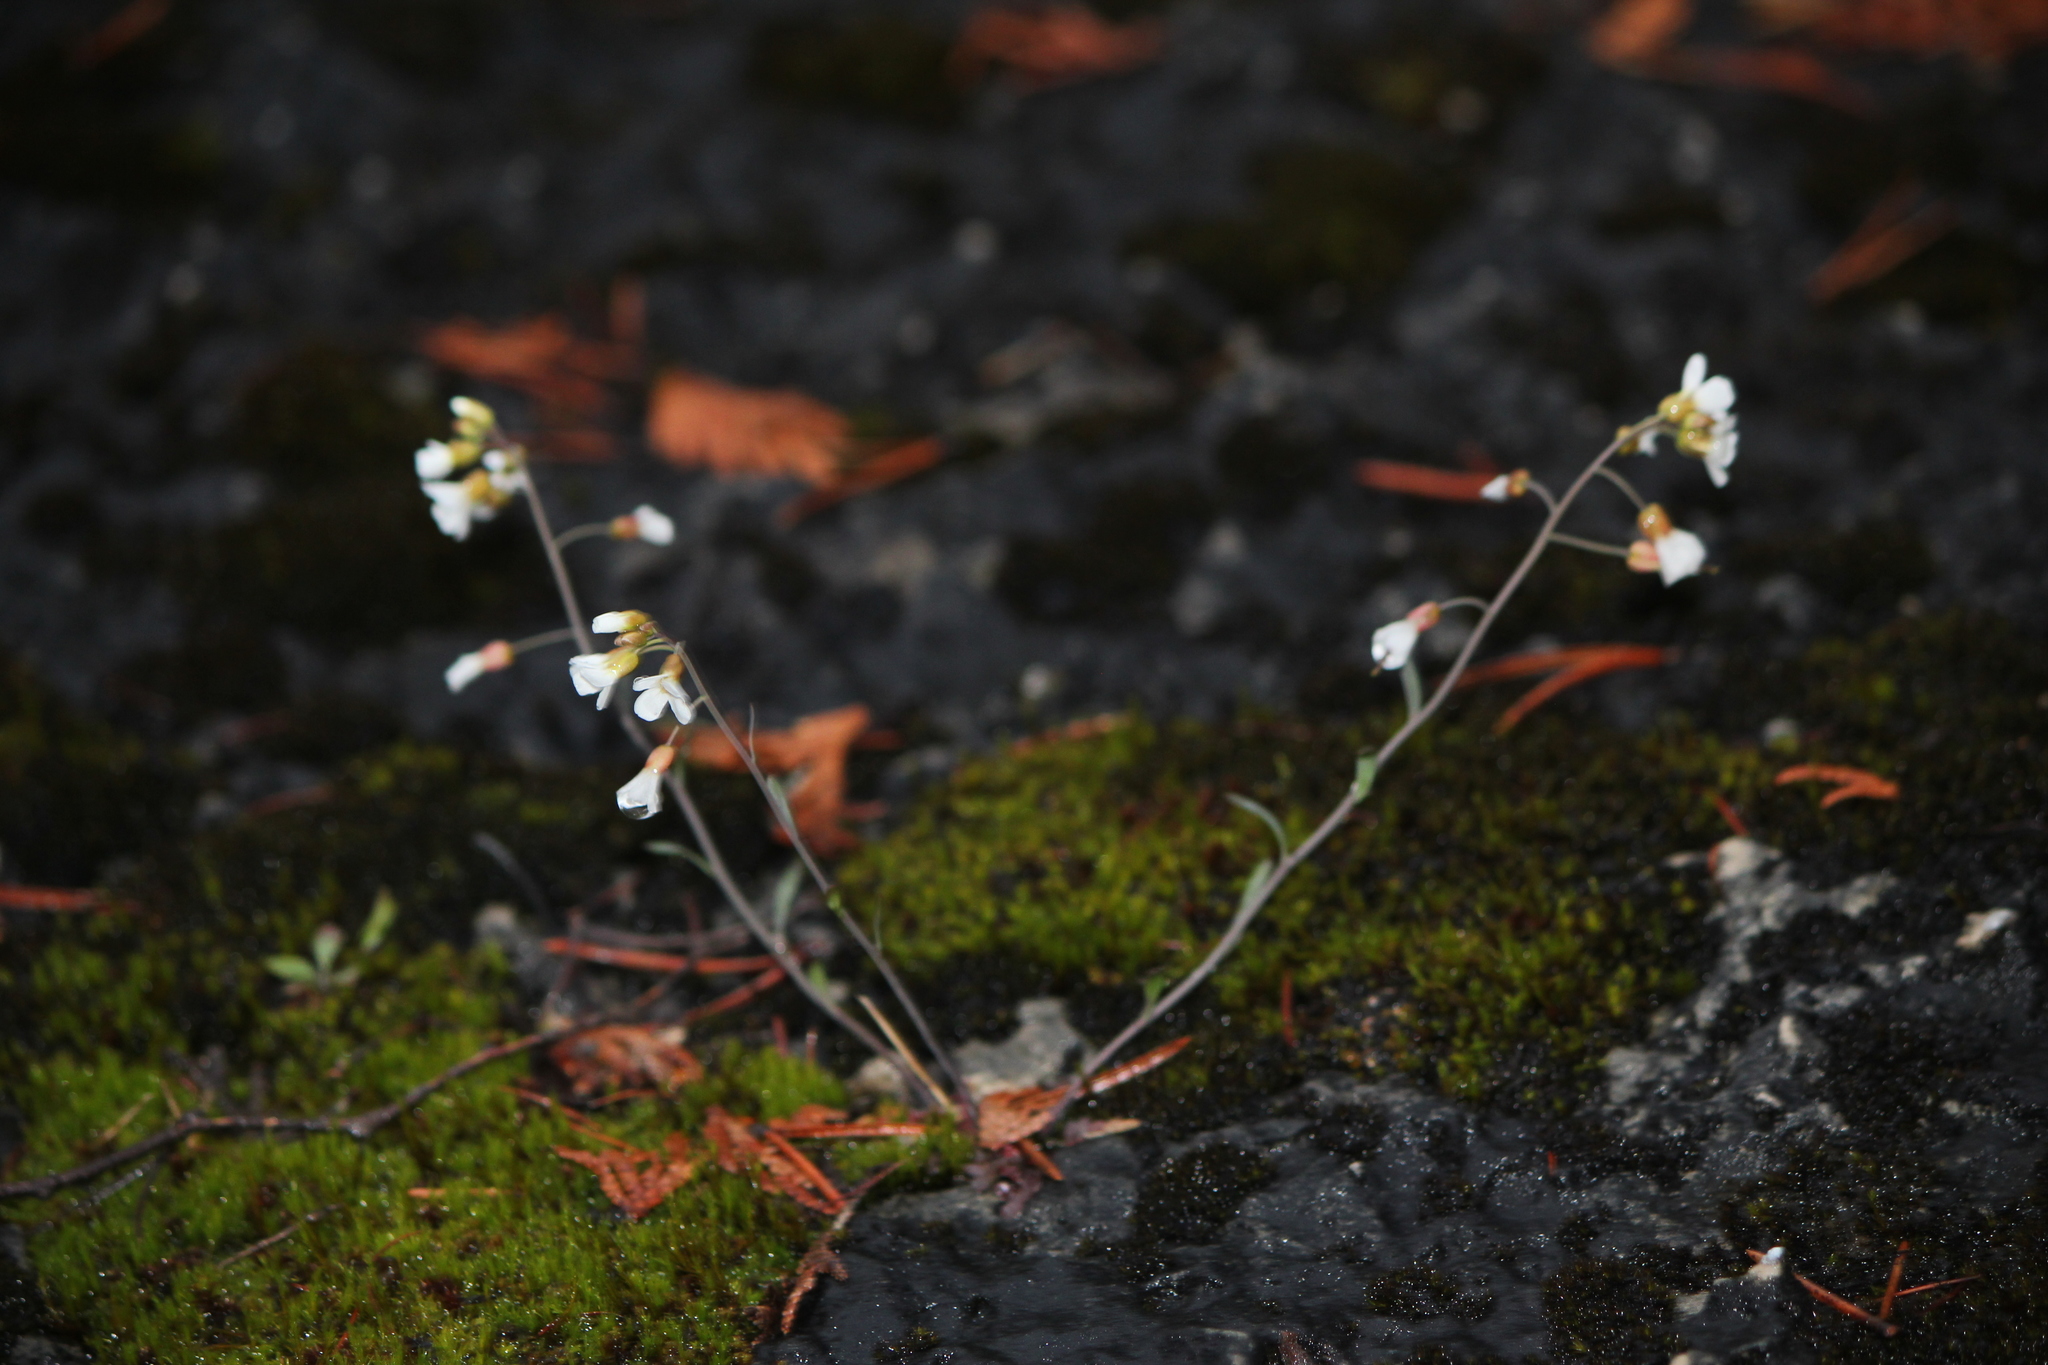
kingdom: Plantae
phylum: Tracheophyta
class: Magnoliopsida
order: Brassicales
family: Brassicaceae
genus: Arabidopsis
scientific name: Arabidopsis lyrata
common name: Lyrate rockcress
